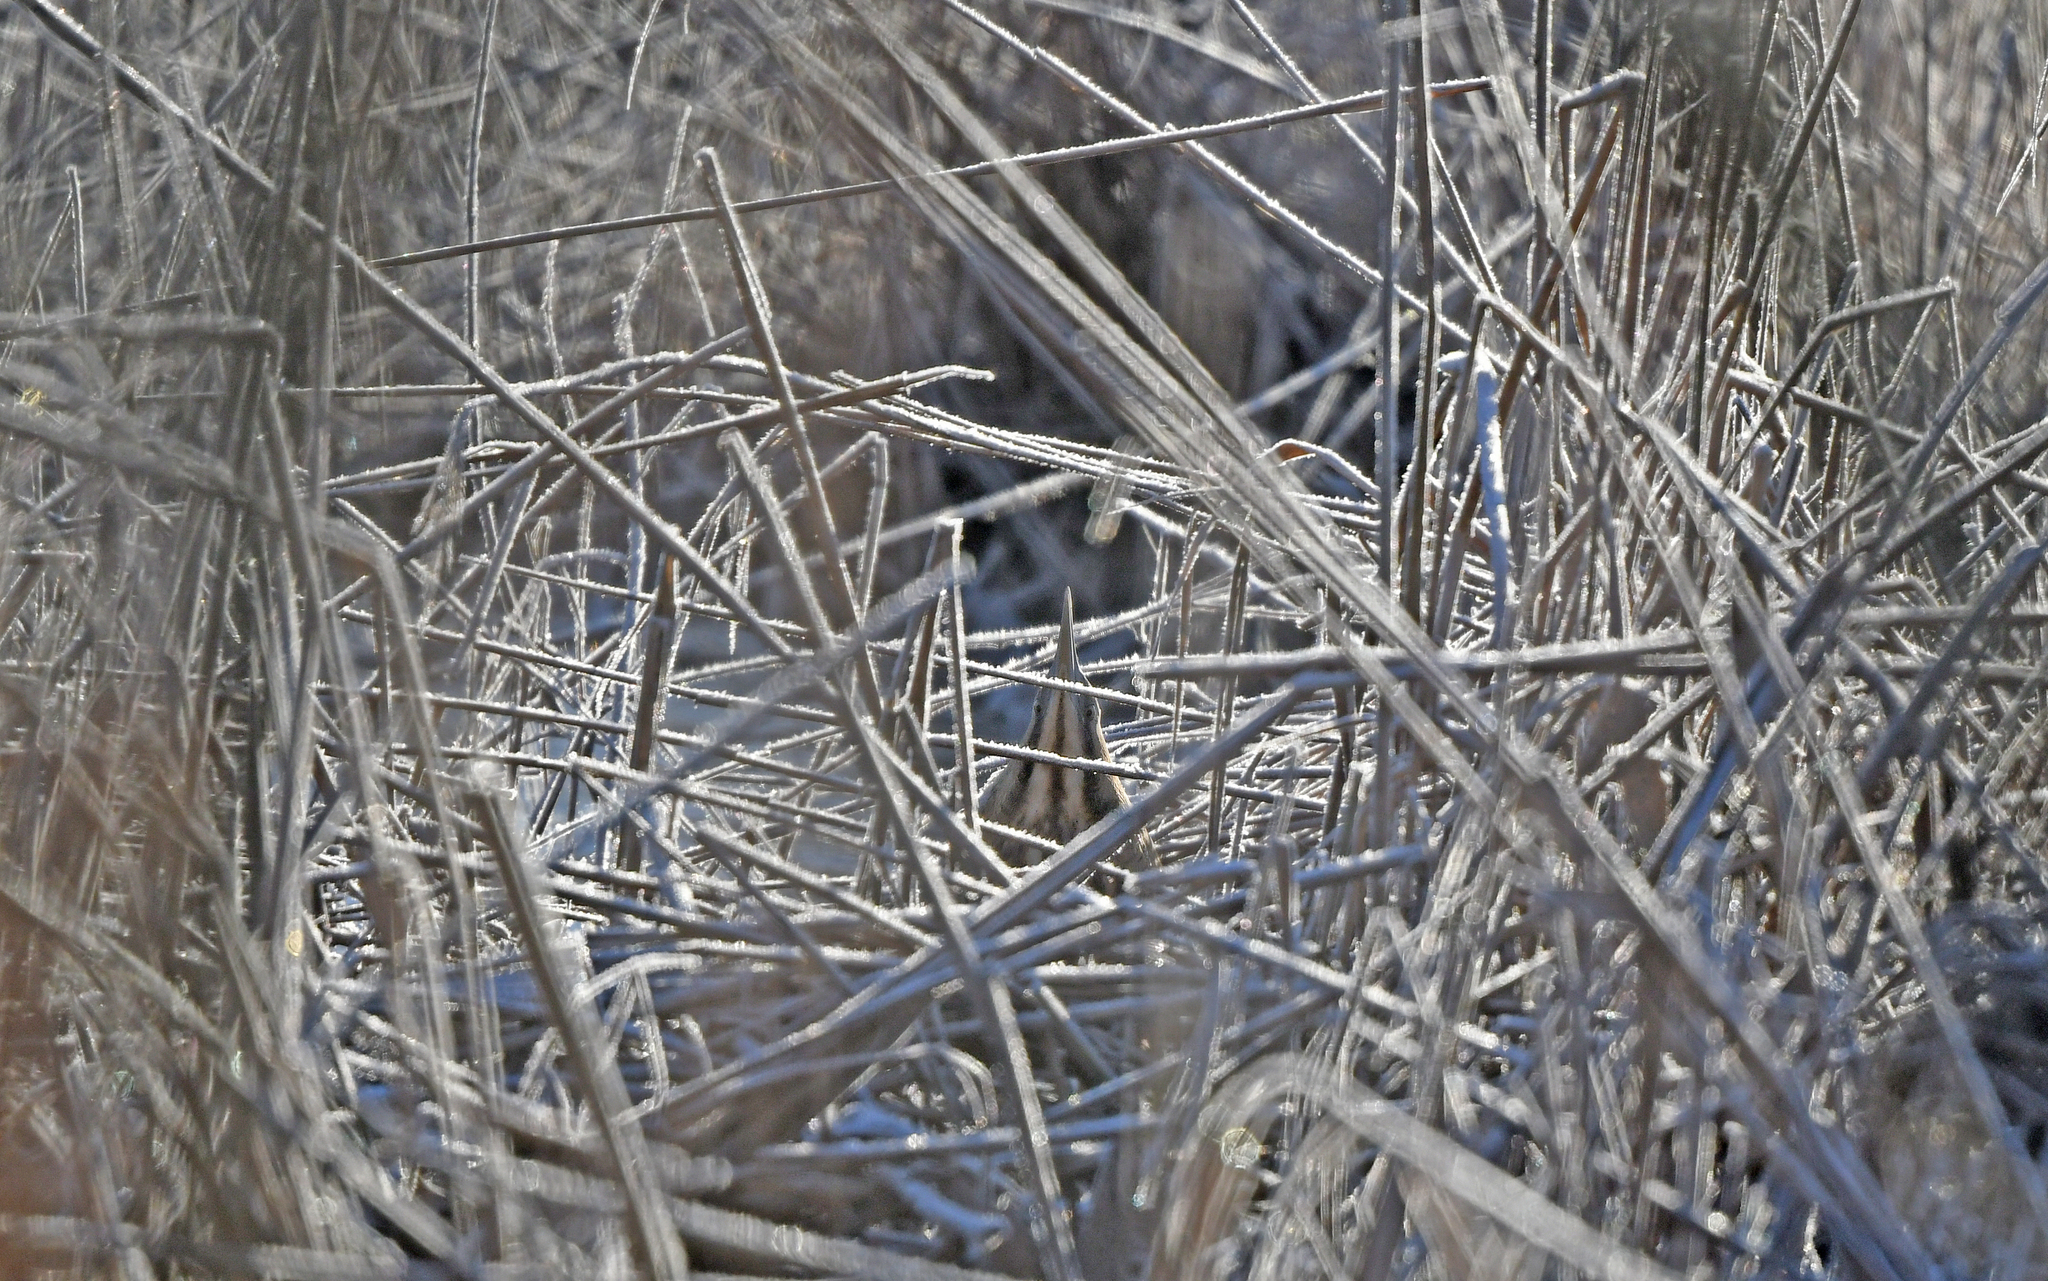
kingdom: Animalia
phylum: Chordata
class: Aves
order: Pelecaniformes
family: Ardeidae
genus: Botaurus
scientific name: Botaurus stellaris
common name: Eurasian bittern
